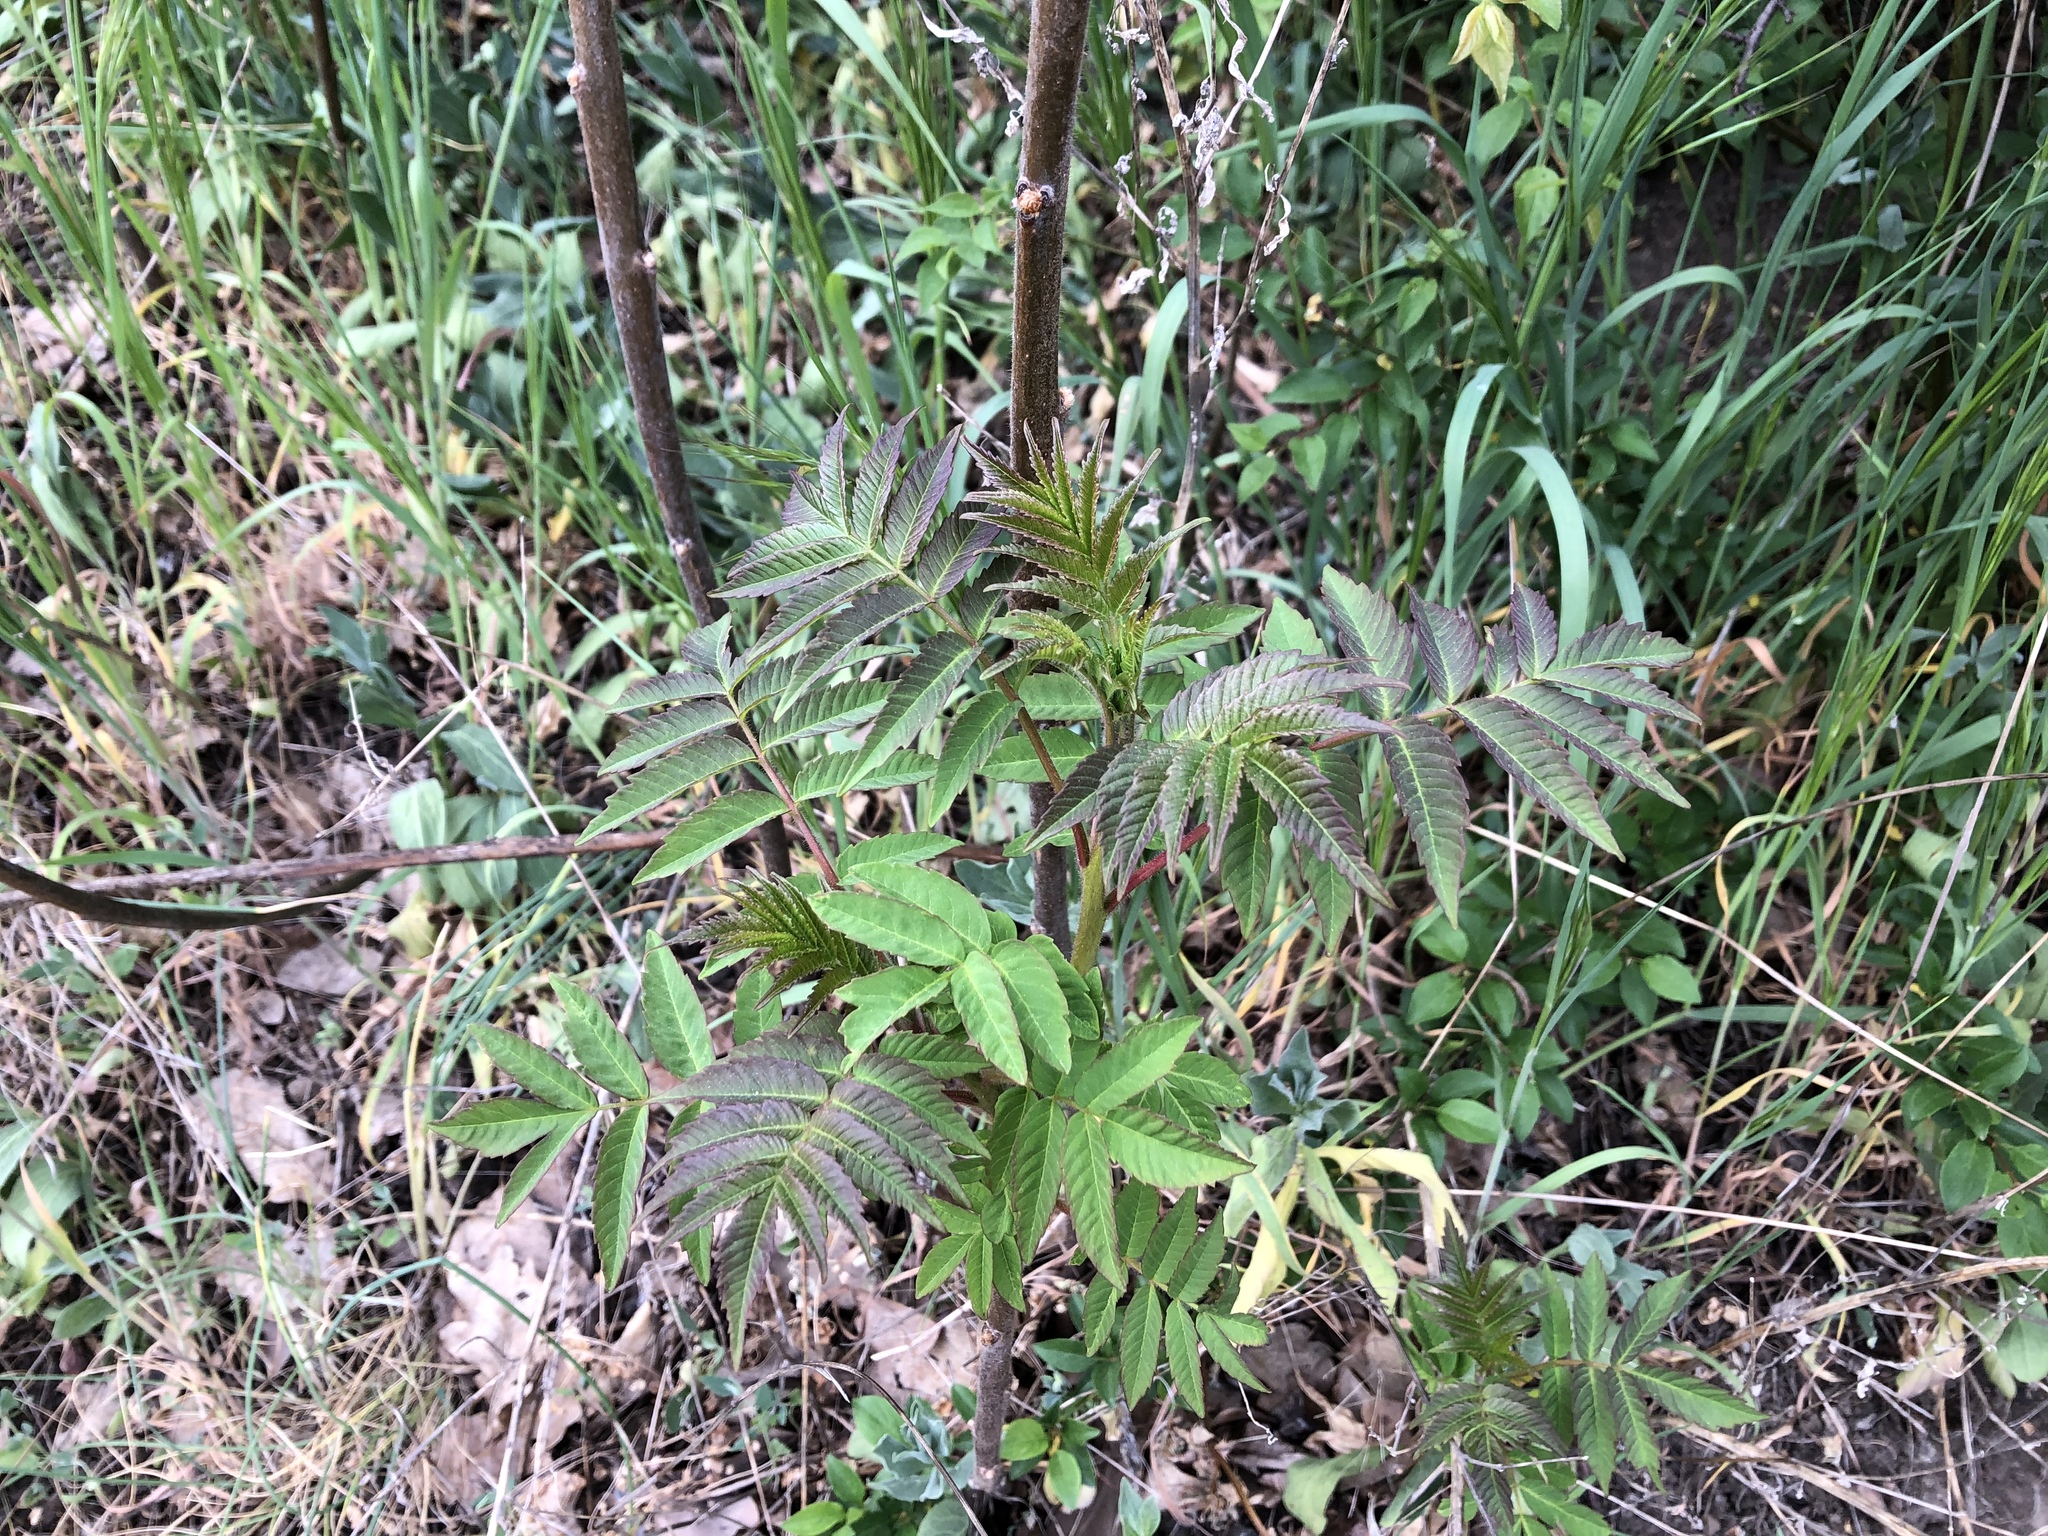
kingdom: Plantae
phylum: Tracheophyta
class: Magnoliopsida
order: Sapindales
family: Anacardiaceae
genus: Rhus
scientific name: Rhus typhina
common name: Staghorn sumac
